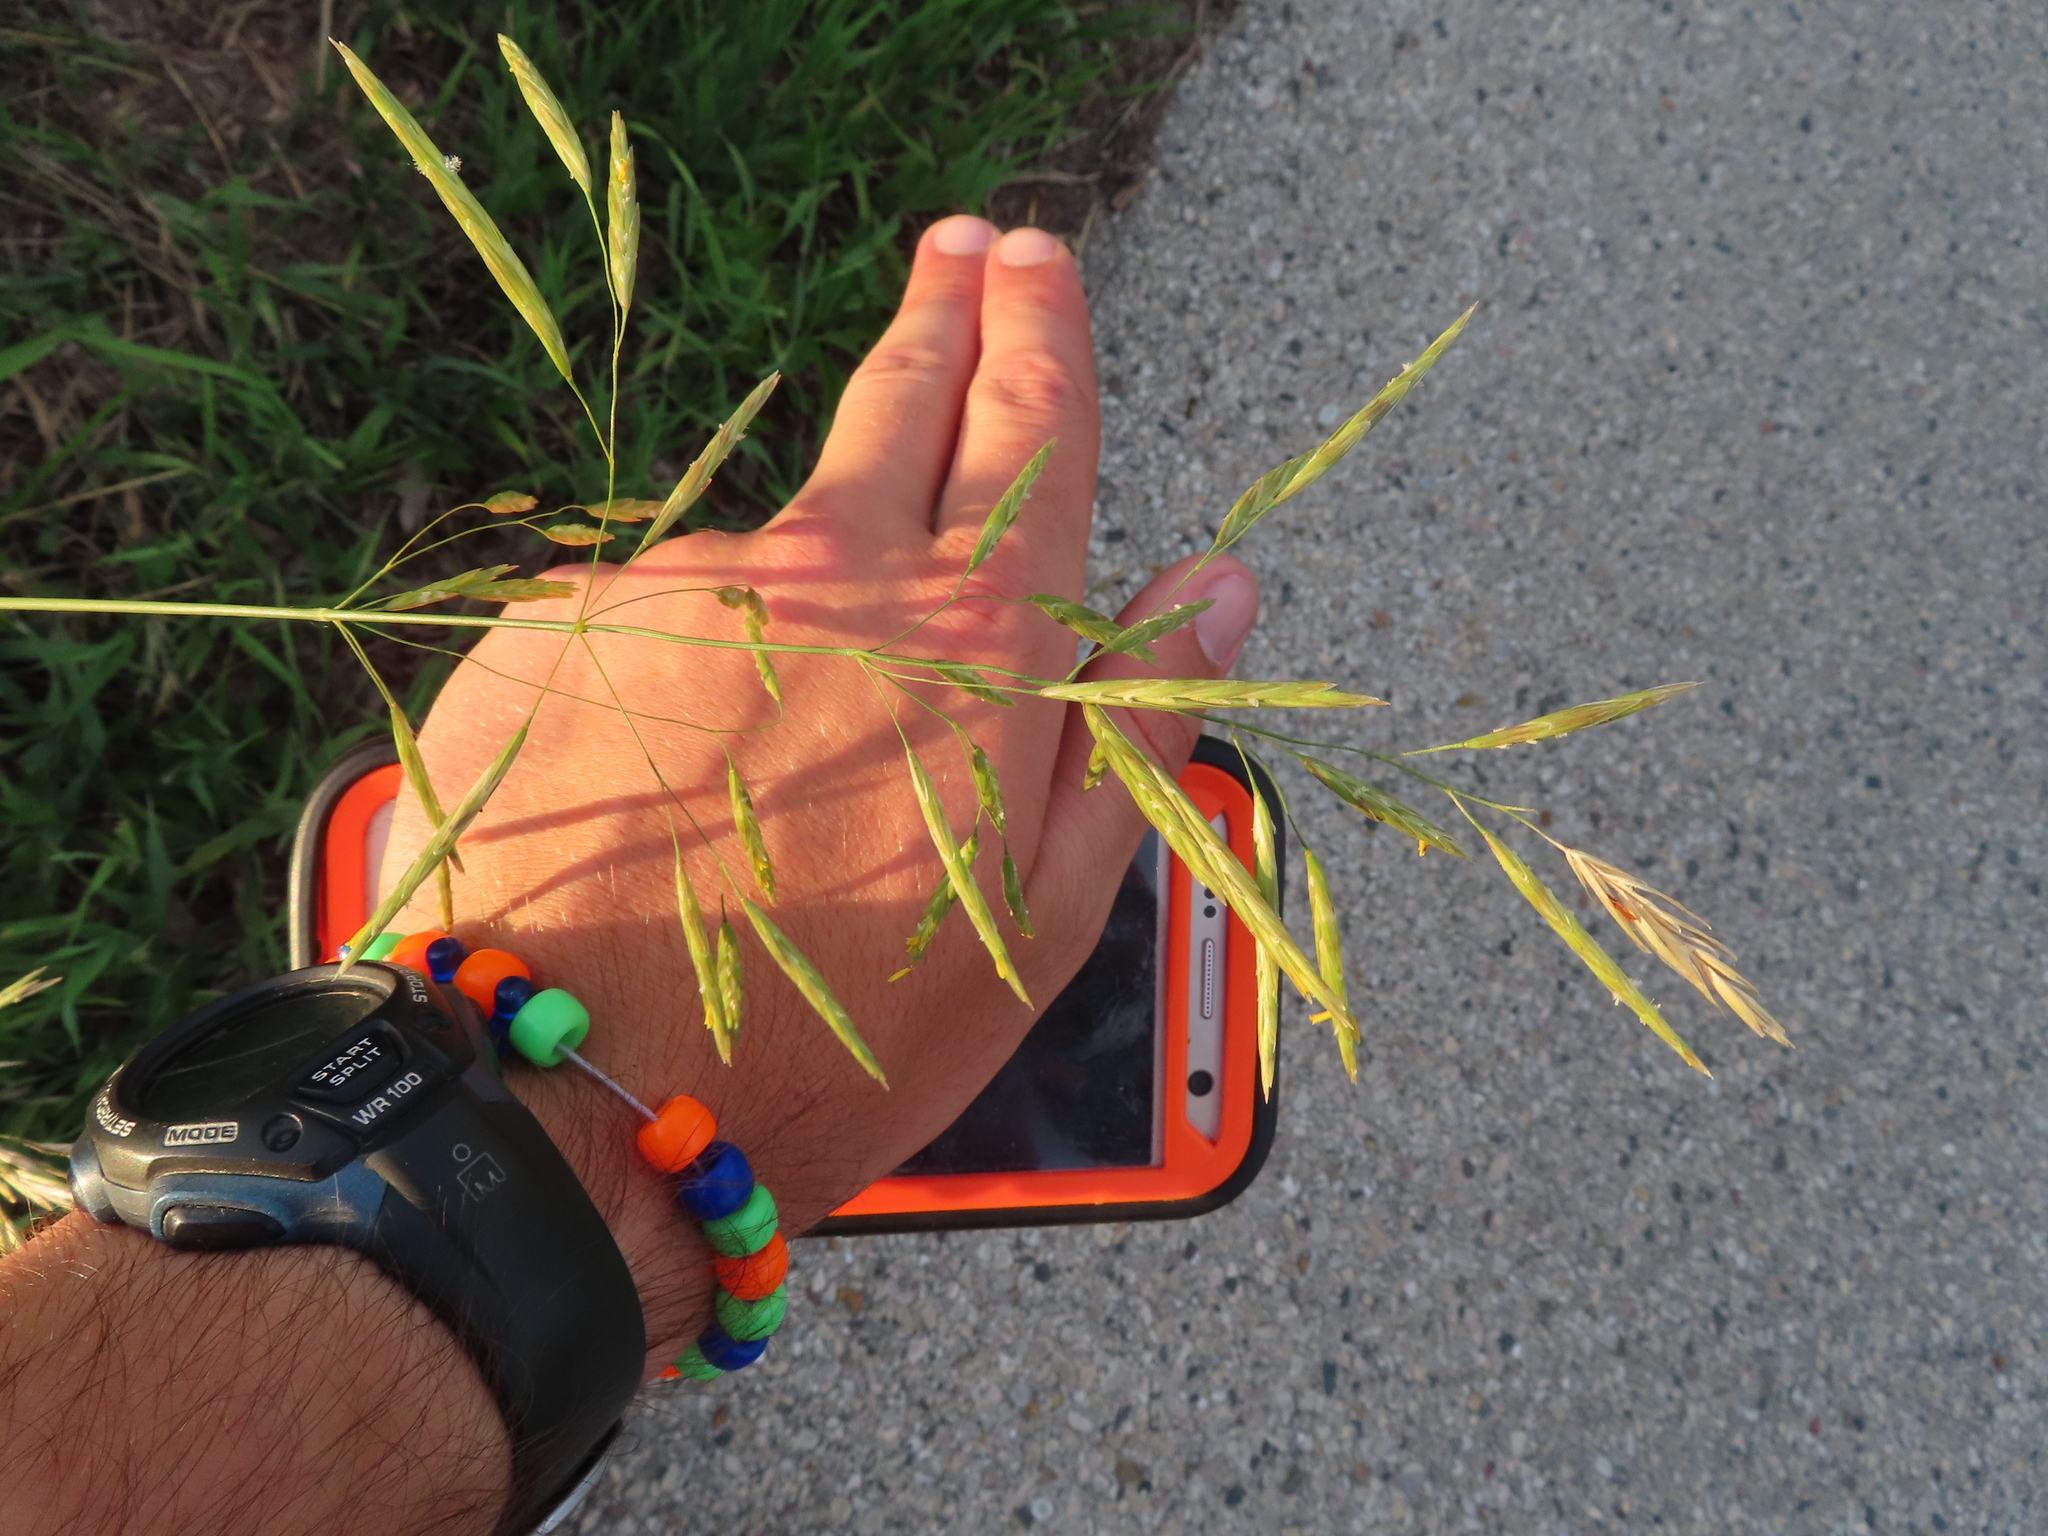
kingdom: Plantae
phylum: Tracheophyta
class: Liliopsida
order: Poales
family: Poaceae
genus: Bromus
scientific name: Bromus inermis
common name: Smooth brome
